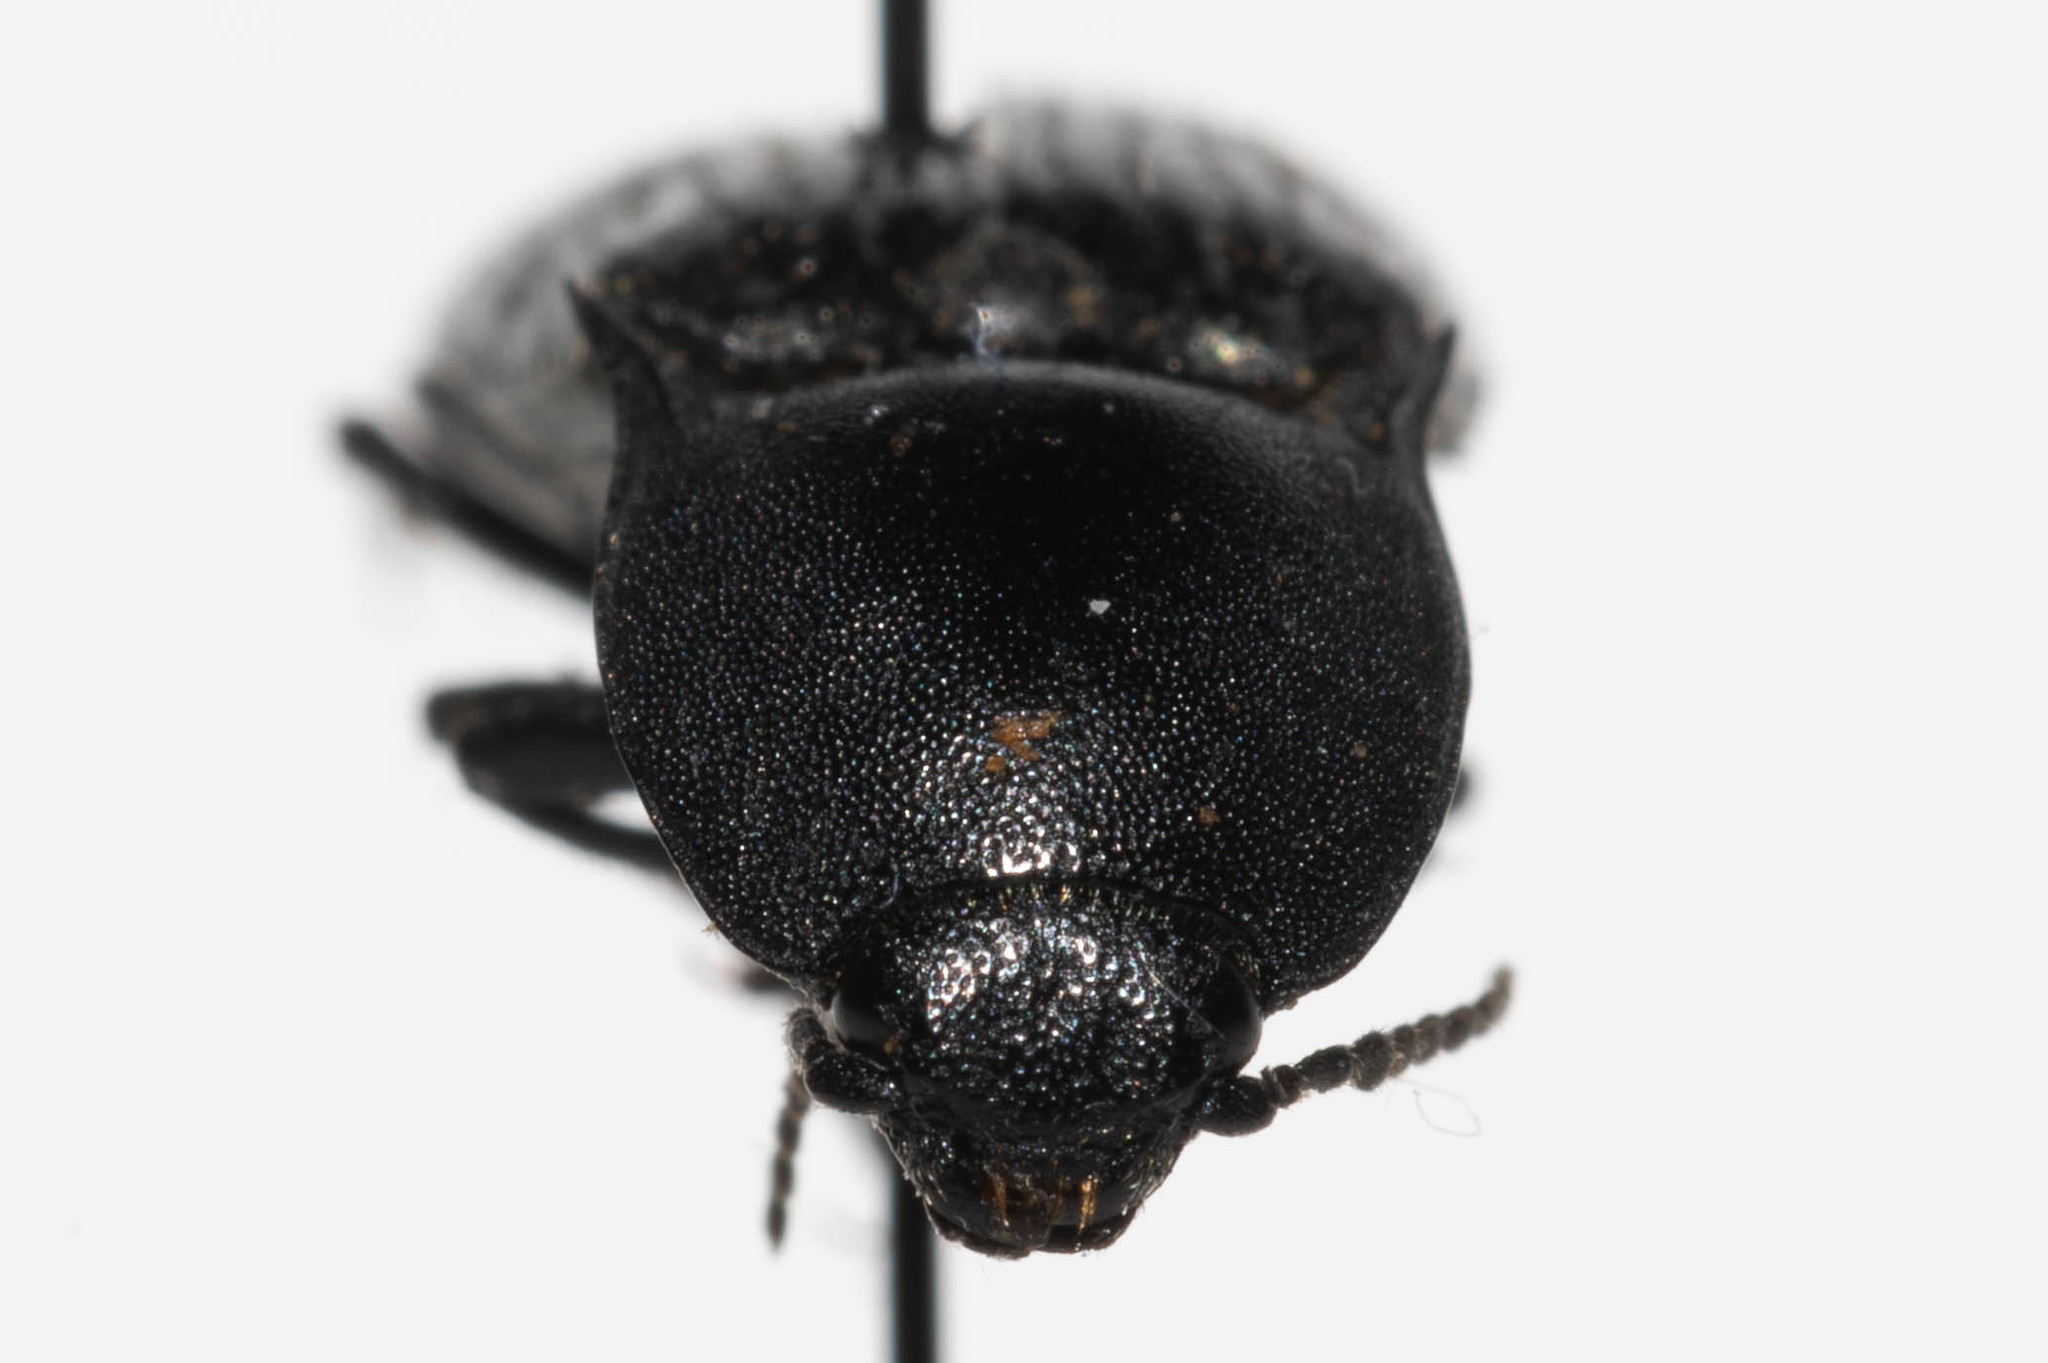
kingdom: Animalia
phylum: Arthropoda
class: Insecta
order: Coleoptera
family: Elateridae
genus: Selatosomus
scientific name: Selatosomus semimetallicus
